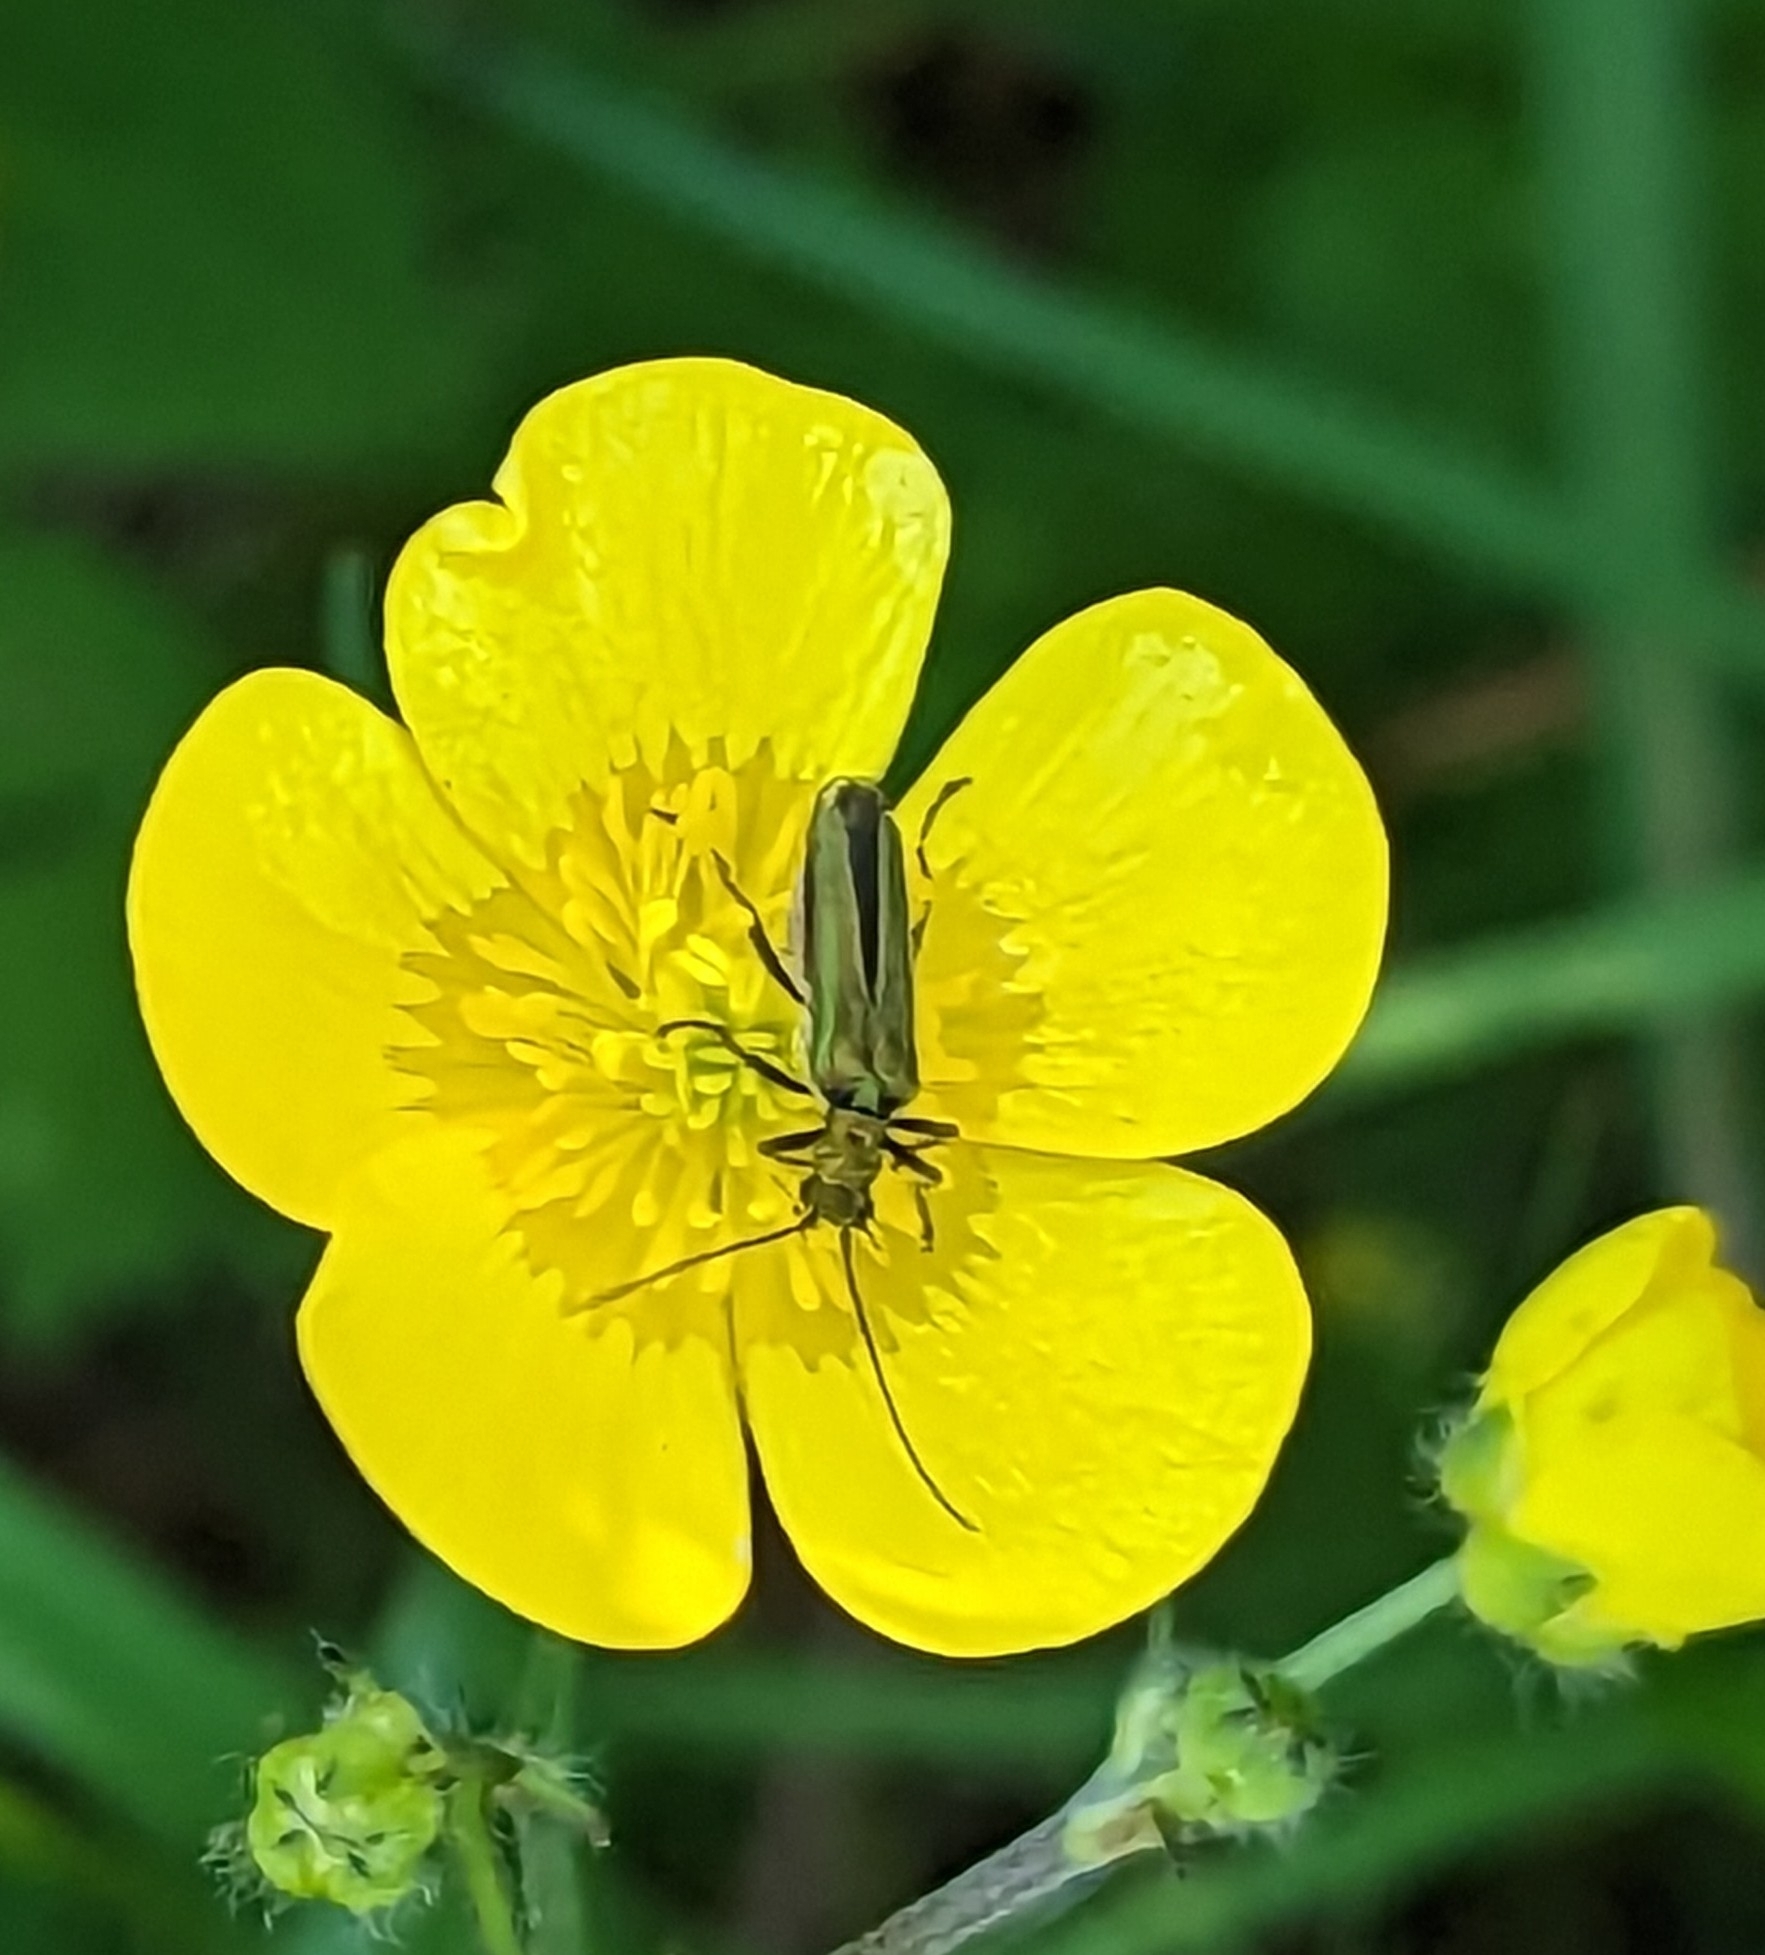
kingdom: Animalia
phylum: Arthropoda
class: Insecta
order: Coleoptera
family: Oedemeridae
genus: Oedemera
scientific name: Oedemera nobilis
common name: Swollen-thighed beetle
